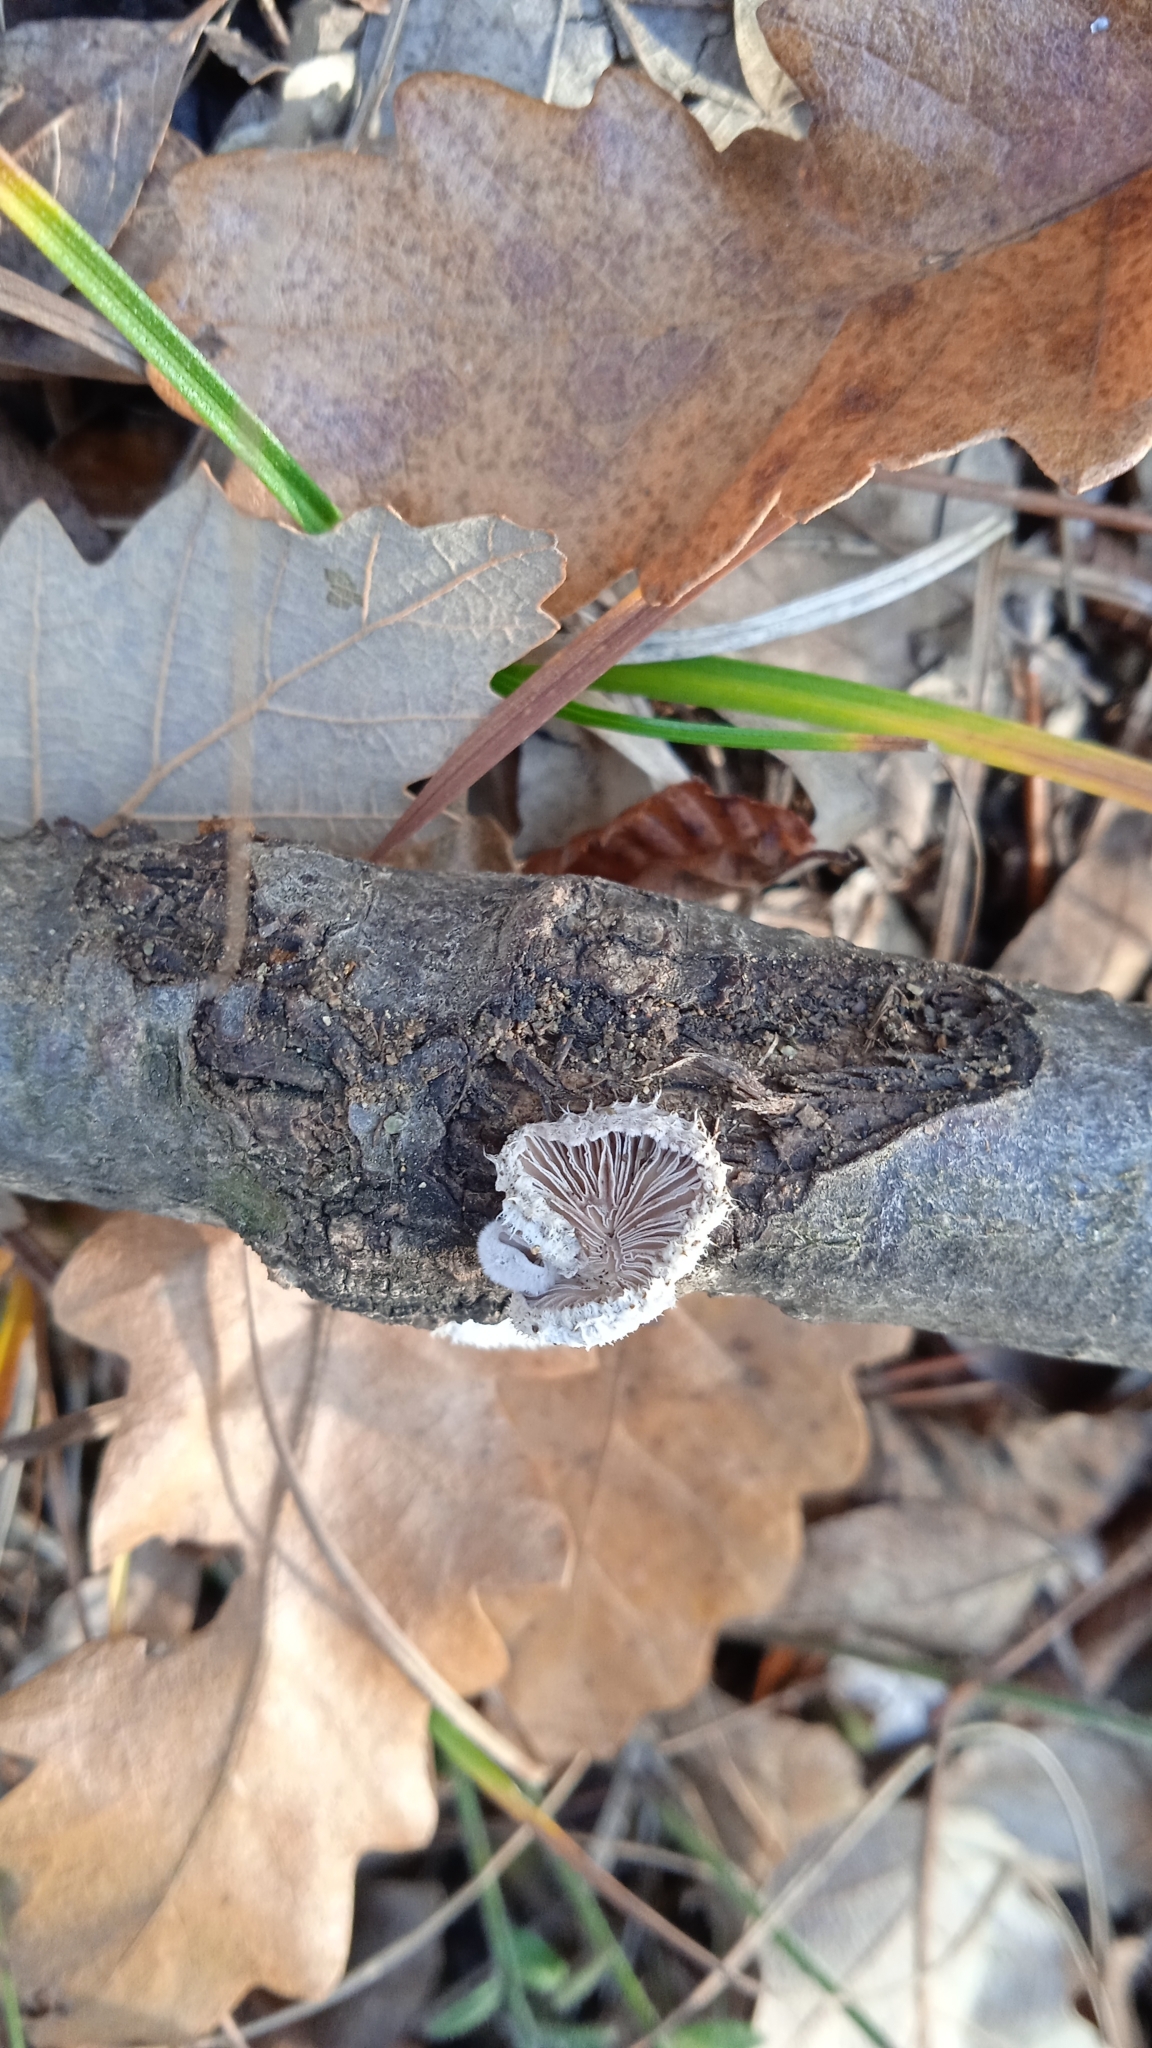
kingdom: Fungi
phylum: Basidiomycota
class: Agaricomycetes
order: Agaricales
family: Schizophyllaceae
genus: Schizophyllum
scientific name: Schizophyllum commune
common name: Common porecrust
